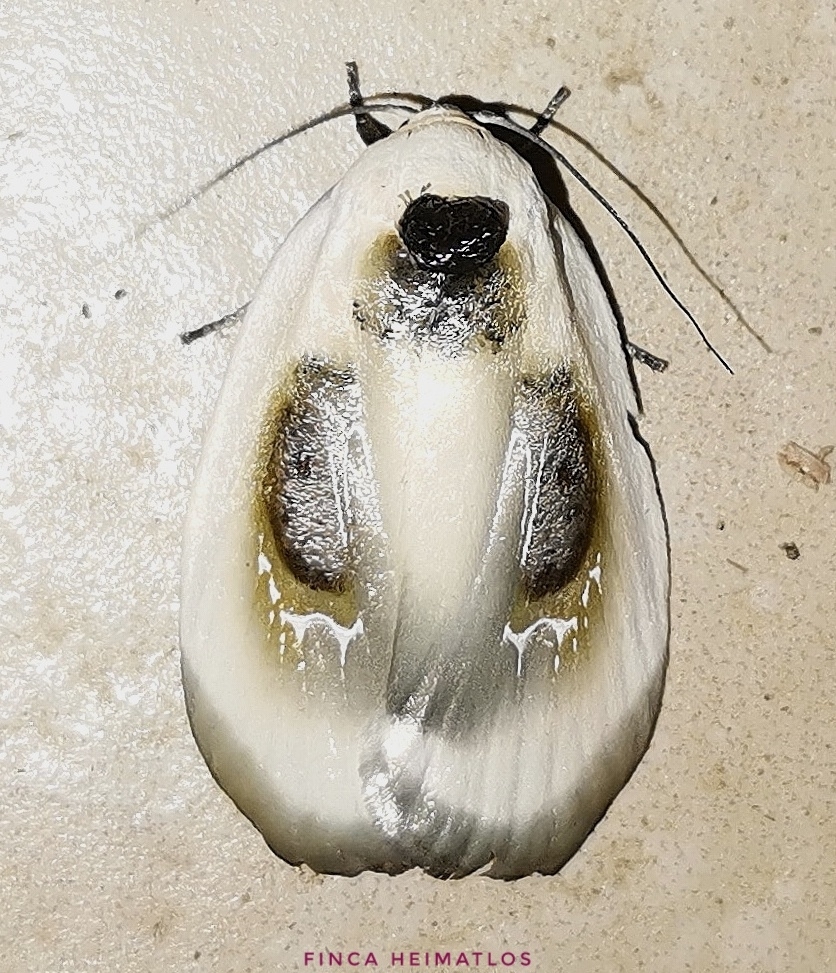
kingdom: Animalia
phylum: Arthropoda
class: Insecta
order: Lepidoptera
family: Depressariidae
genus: Mysaromima
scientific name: Mysaromima liquescens
